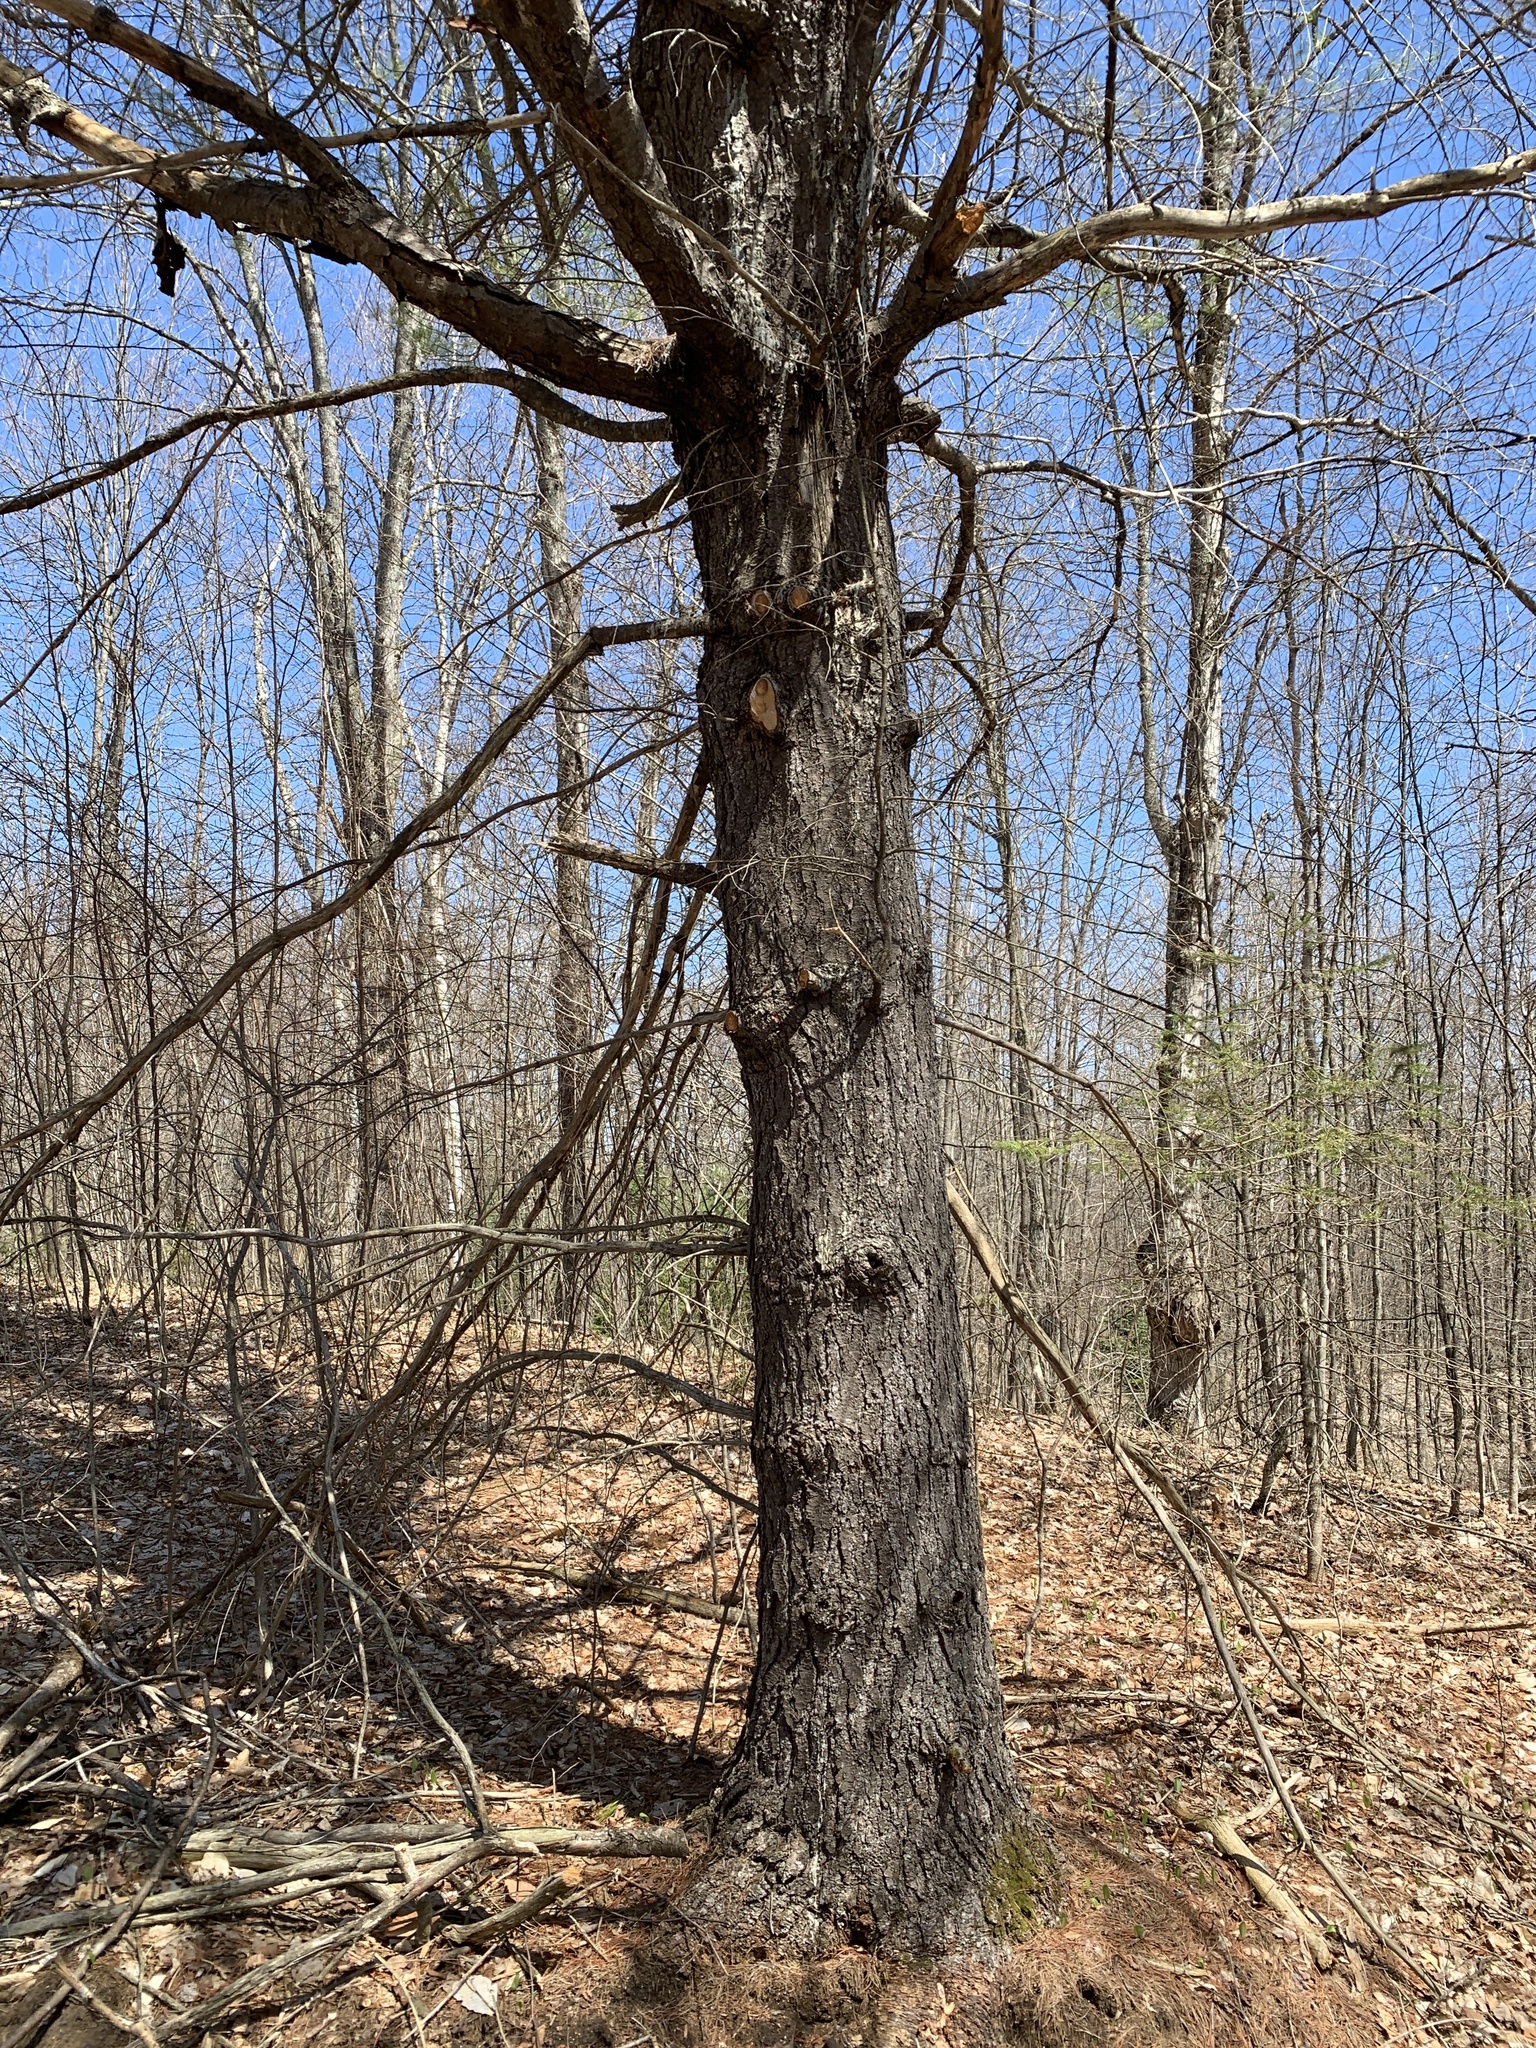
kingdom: Plantae
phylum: Tracheophyta
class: Pinopsida
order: Pinales
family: Pinaceae
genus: Pinus
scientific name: Pinus strobus
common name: Weymouth pine
